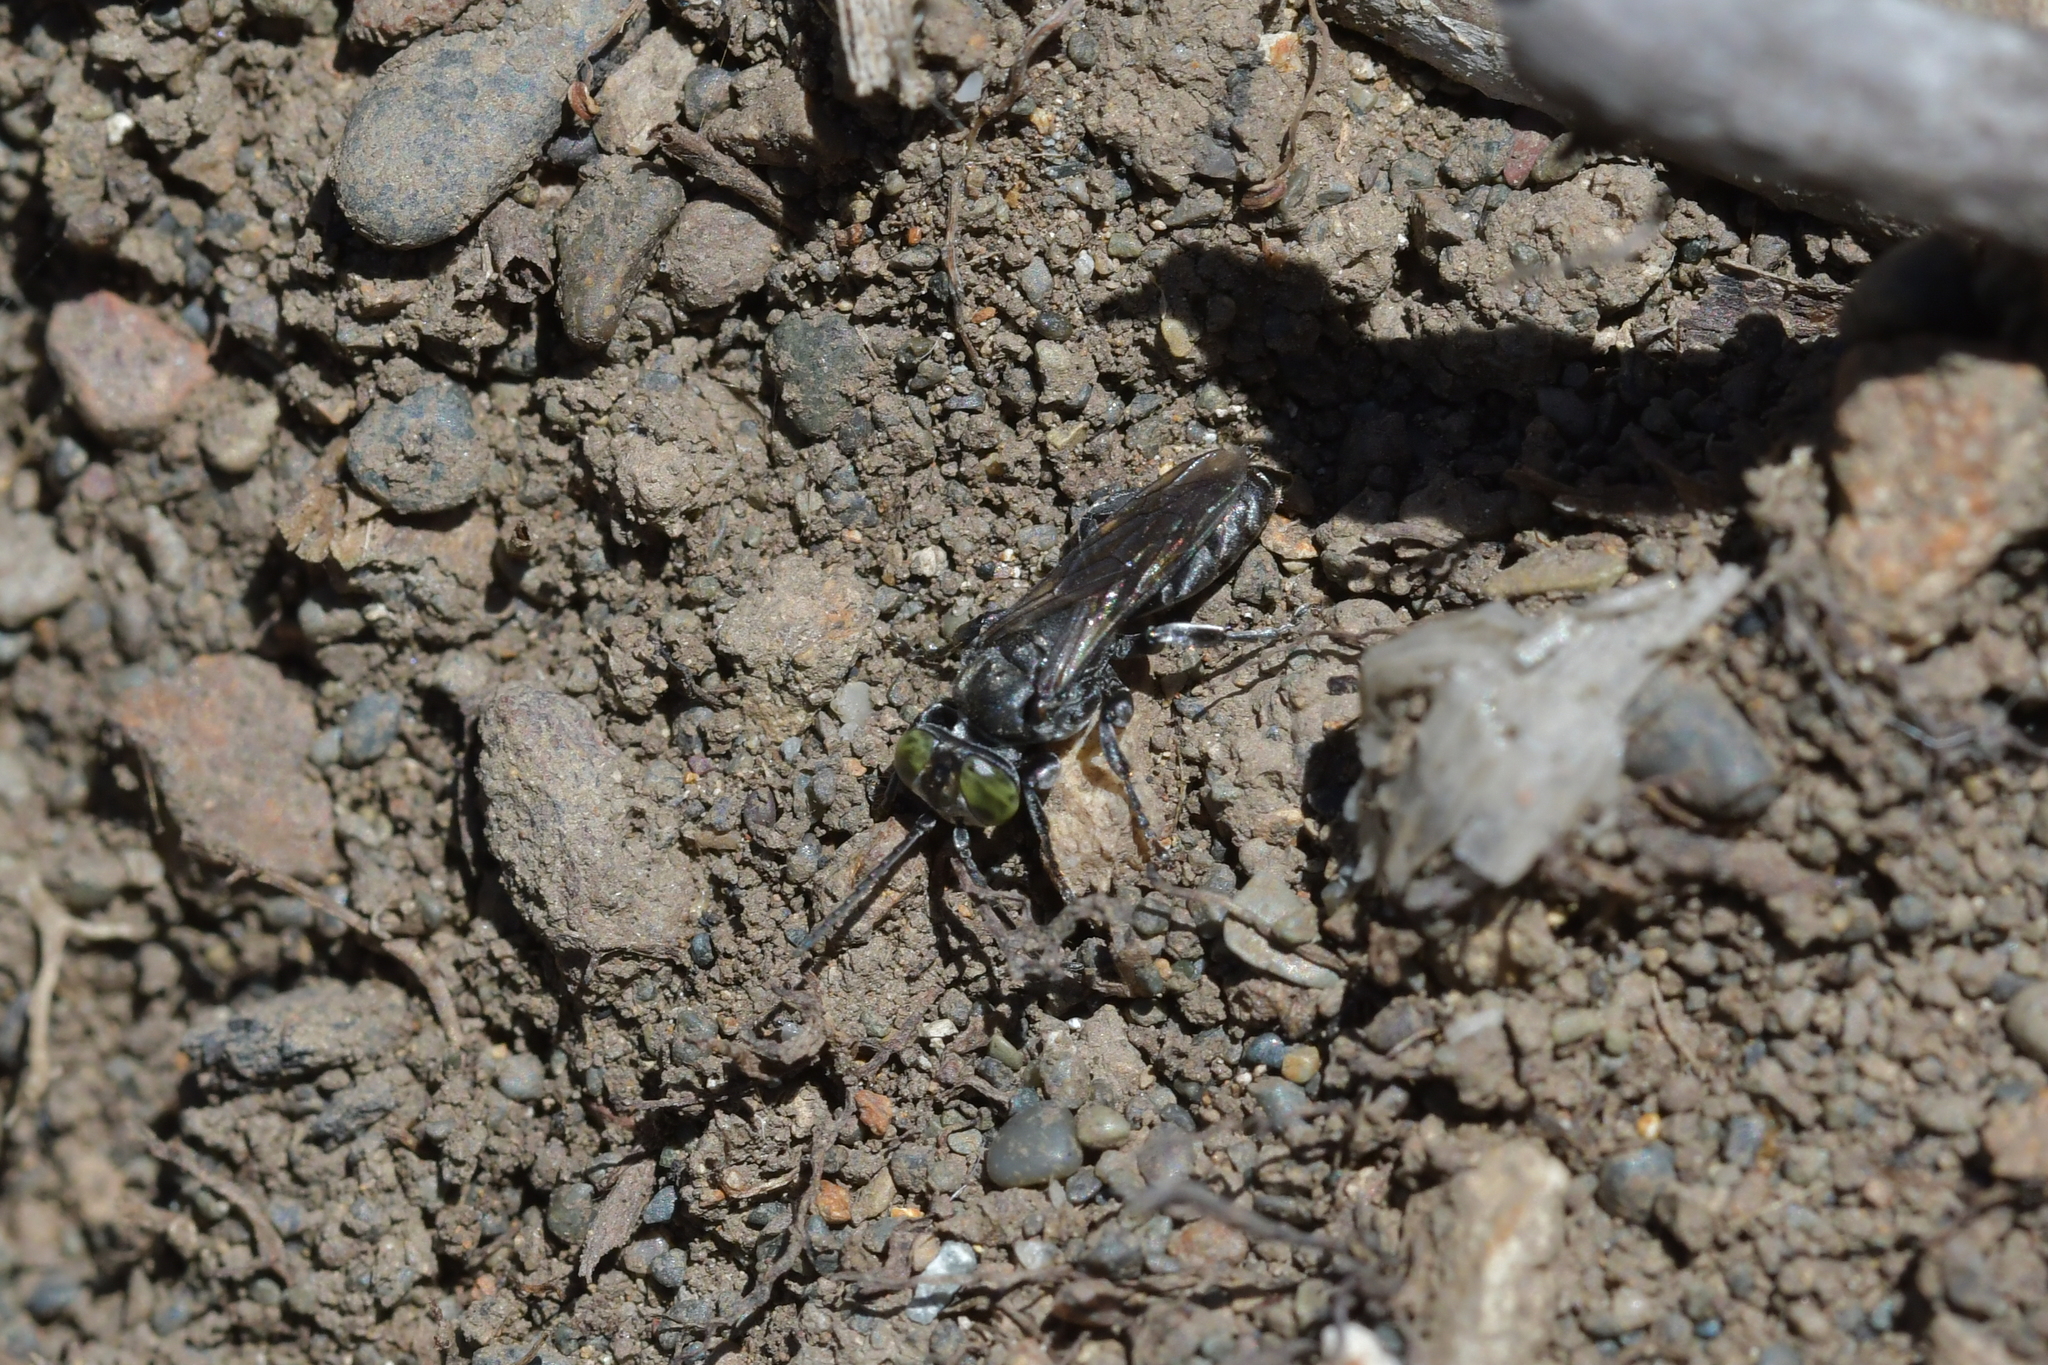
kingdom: Animalia
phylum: Arthropoda
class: Insecta
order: Hymenoptera
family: Crabronidae
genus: Tachysphex
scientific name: Tachysphex nigerrimus
